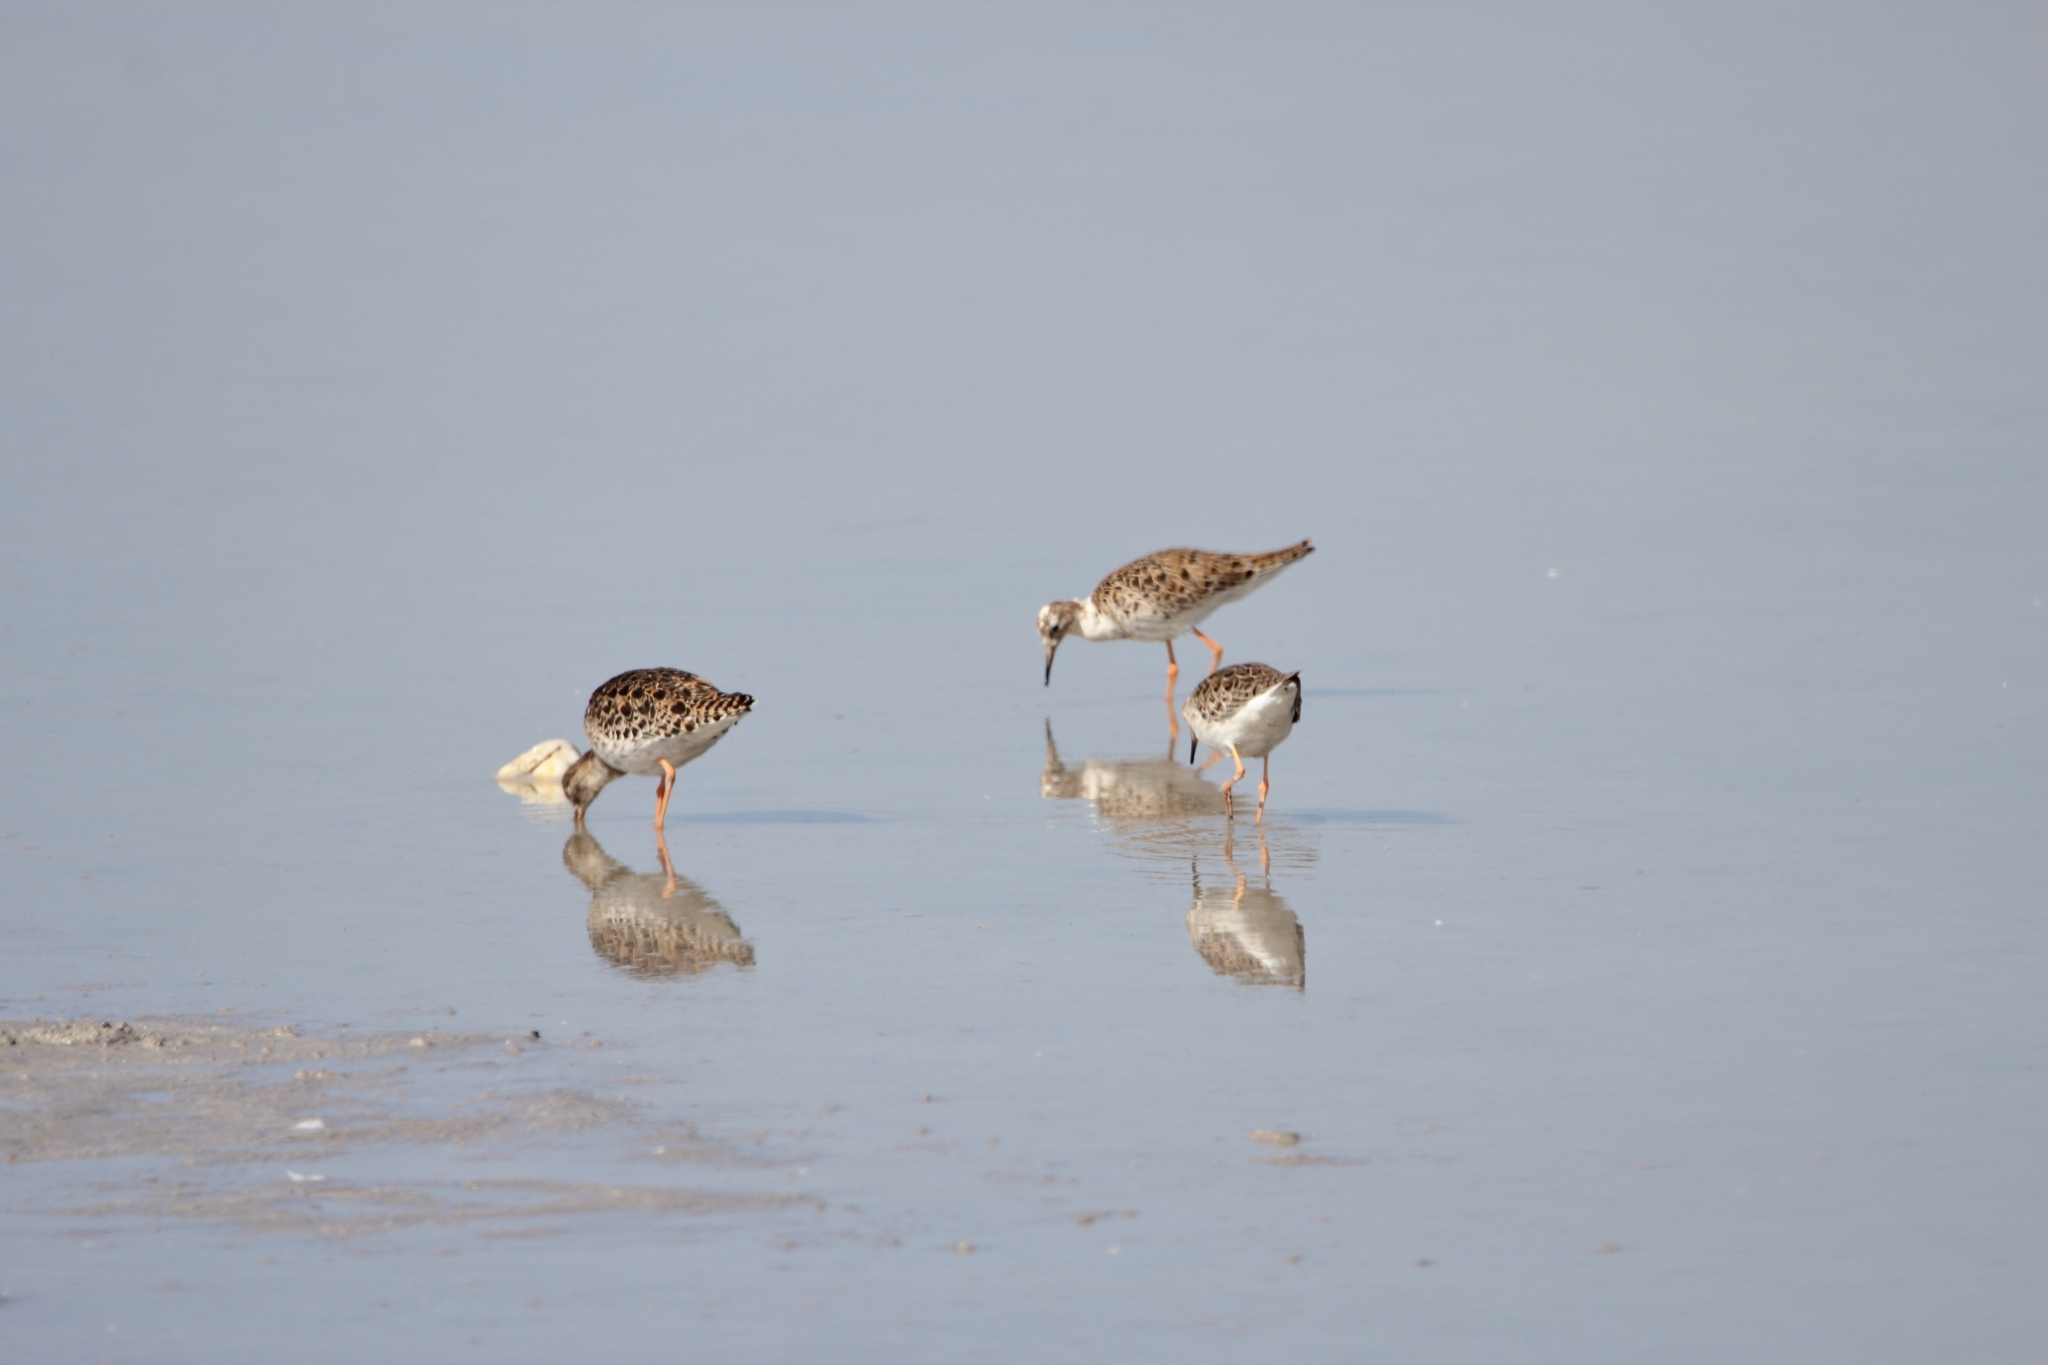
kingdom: Animalia
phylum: Chordata
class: Aves
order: Charadriiformes
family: Scolopacidae
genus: Calidris
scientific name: Calidris pugnax
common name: Ruff
